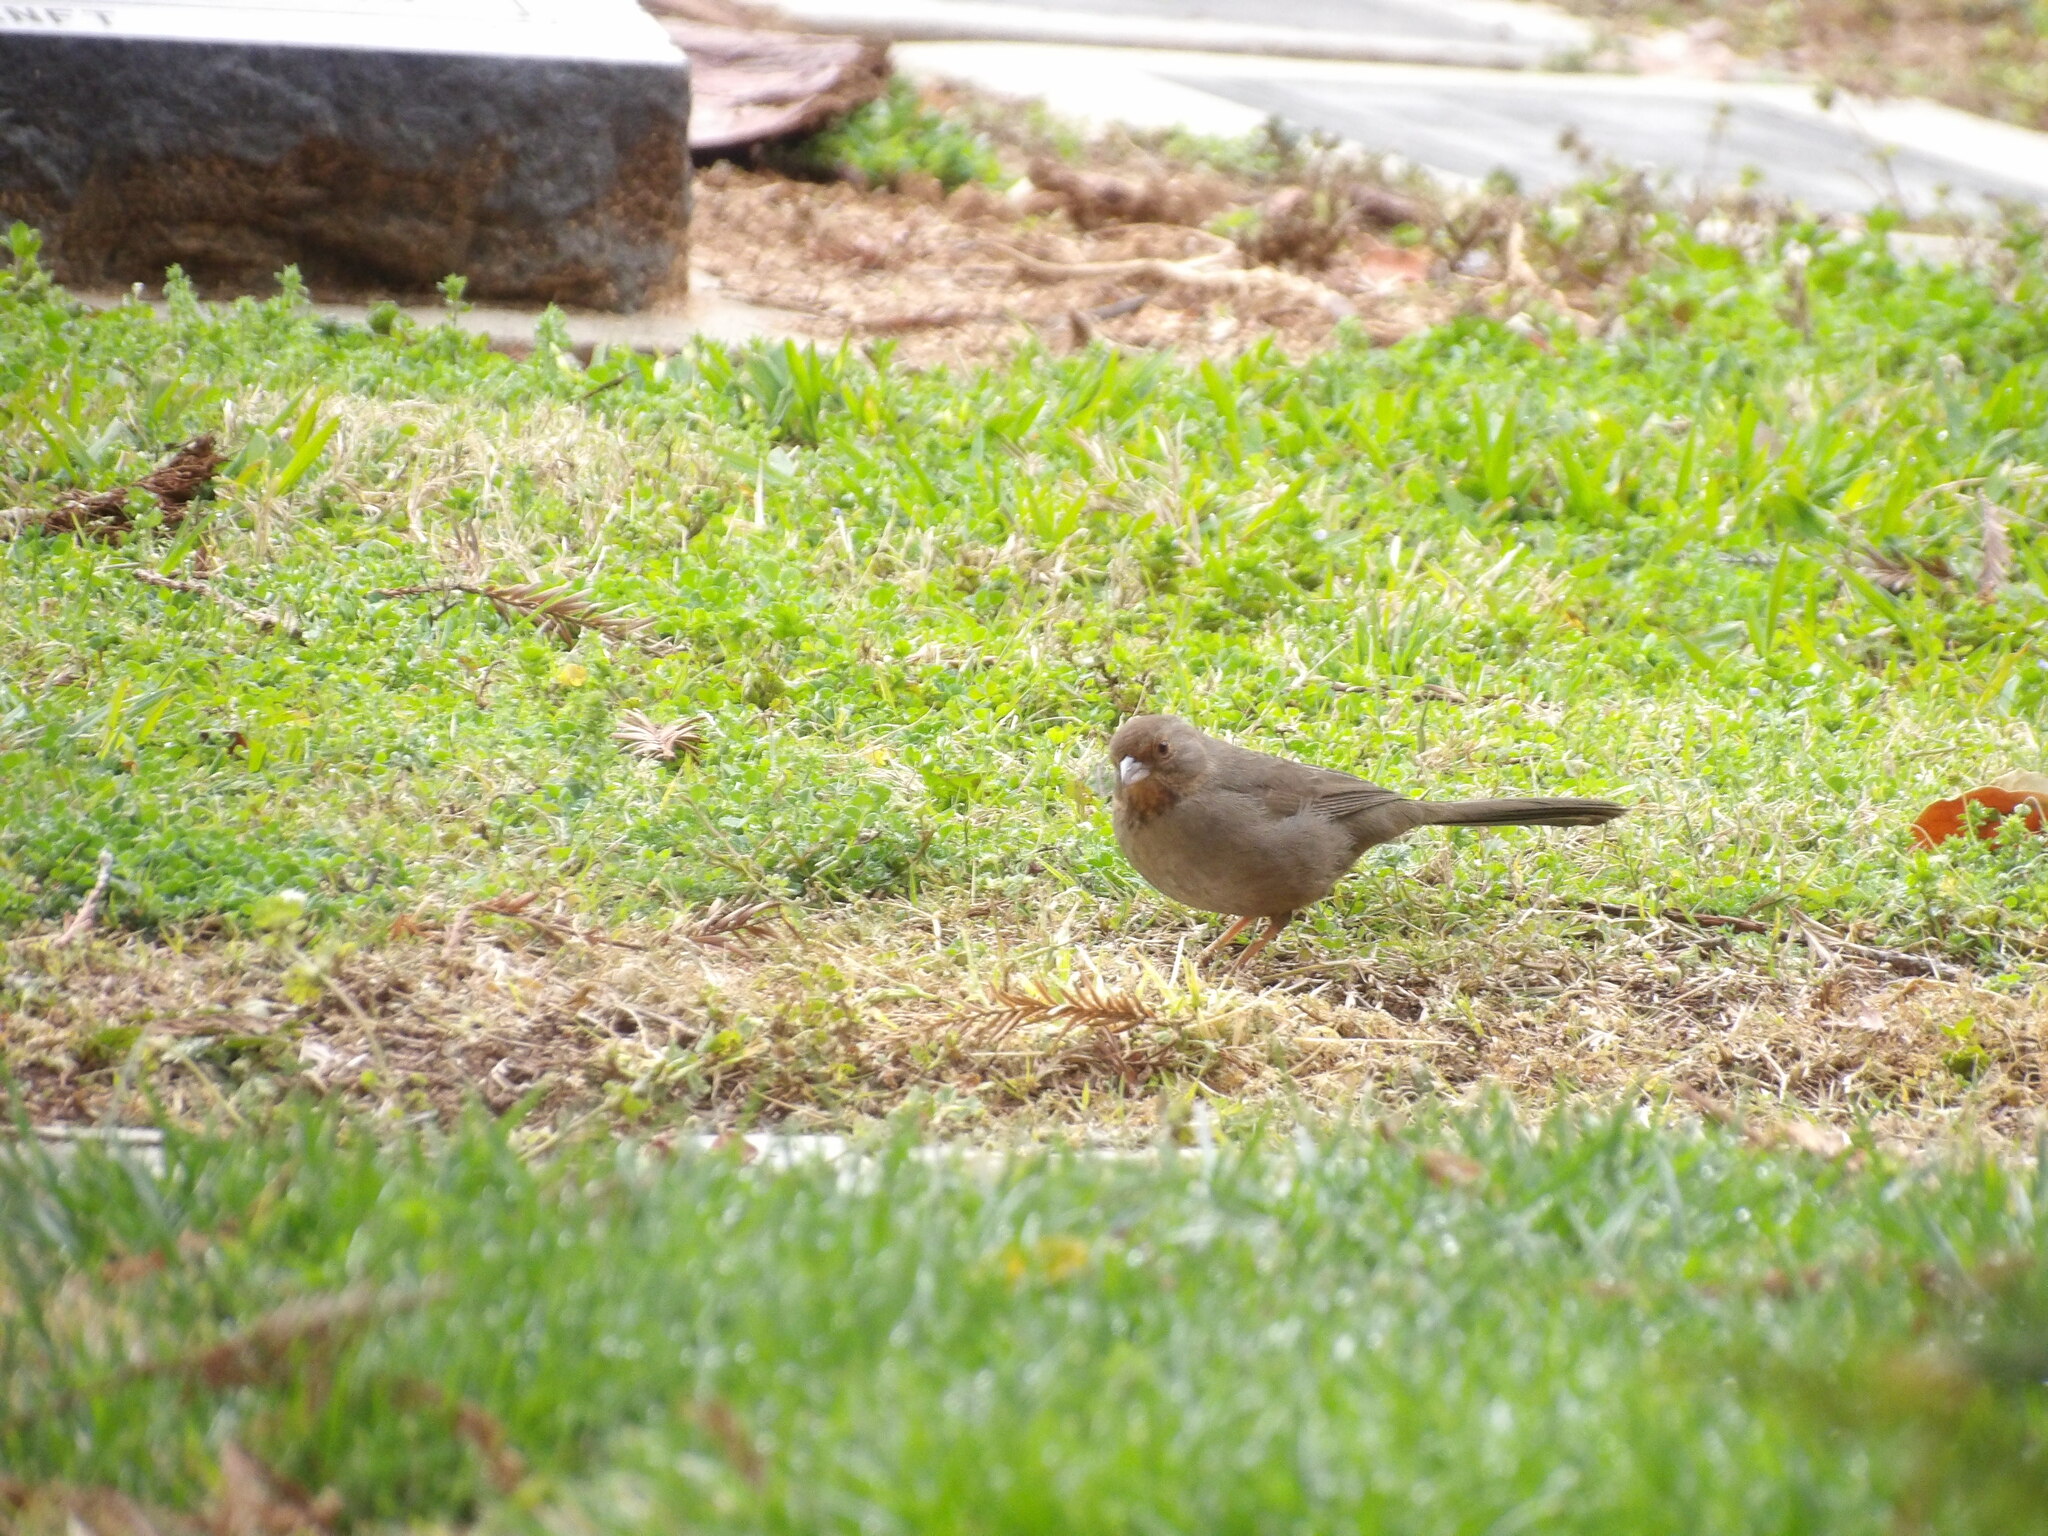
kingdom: Animalia
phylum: Chordata
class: Aves
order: Passeriformes
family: Passerellidae
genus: Melozone
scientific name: Melozone crissalis
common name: California towhee
